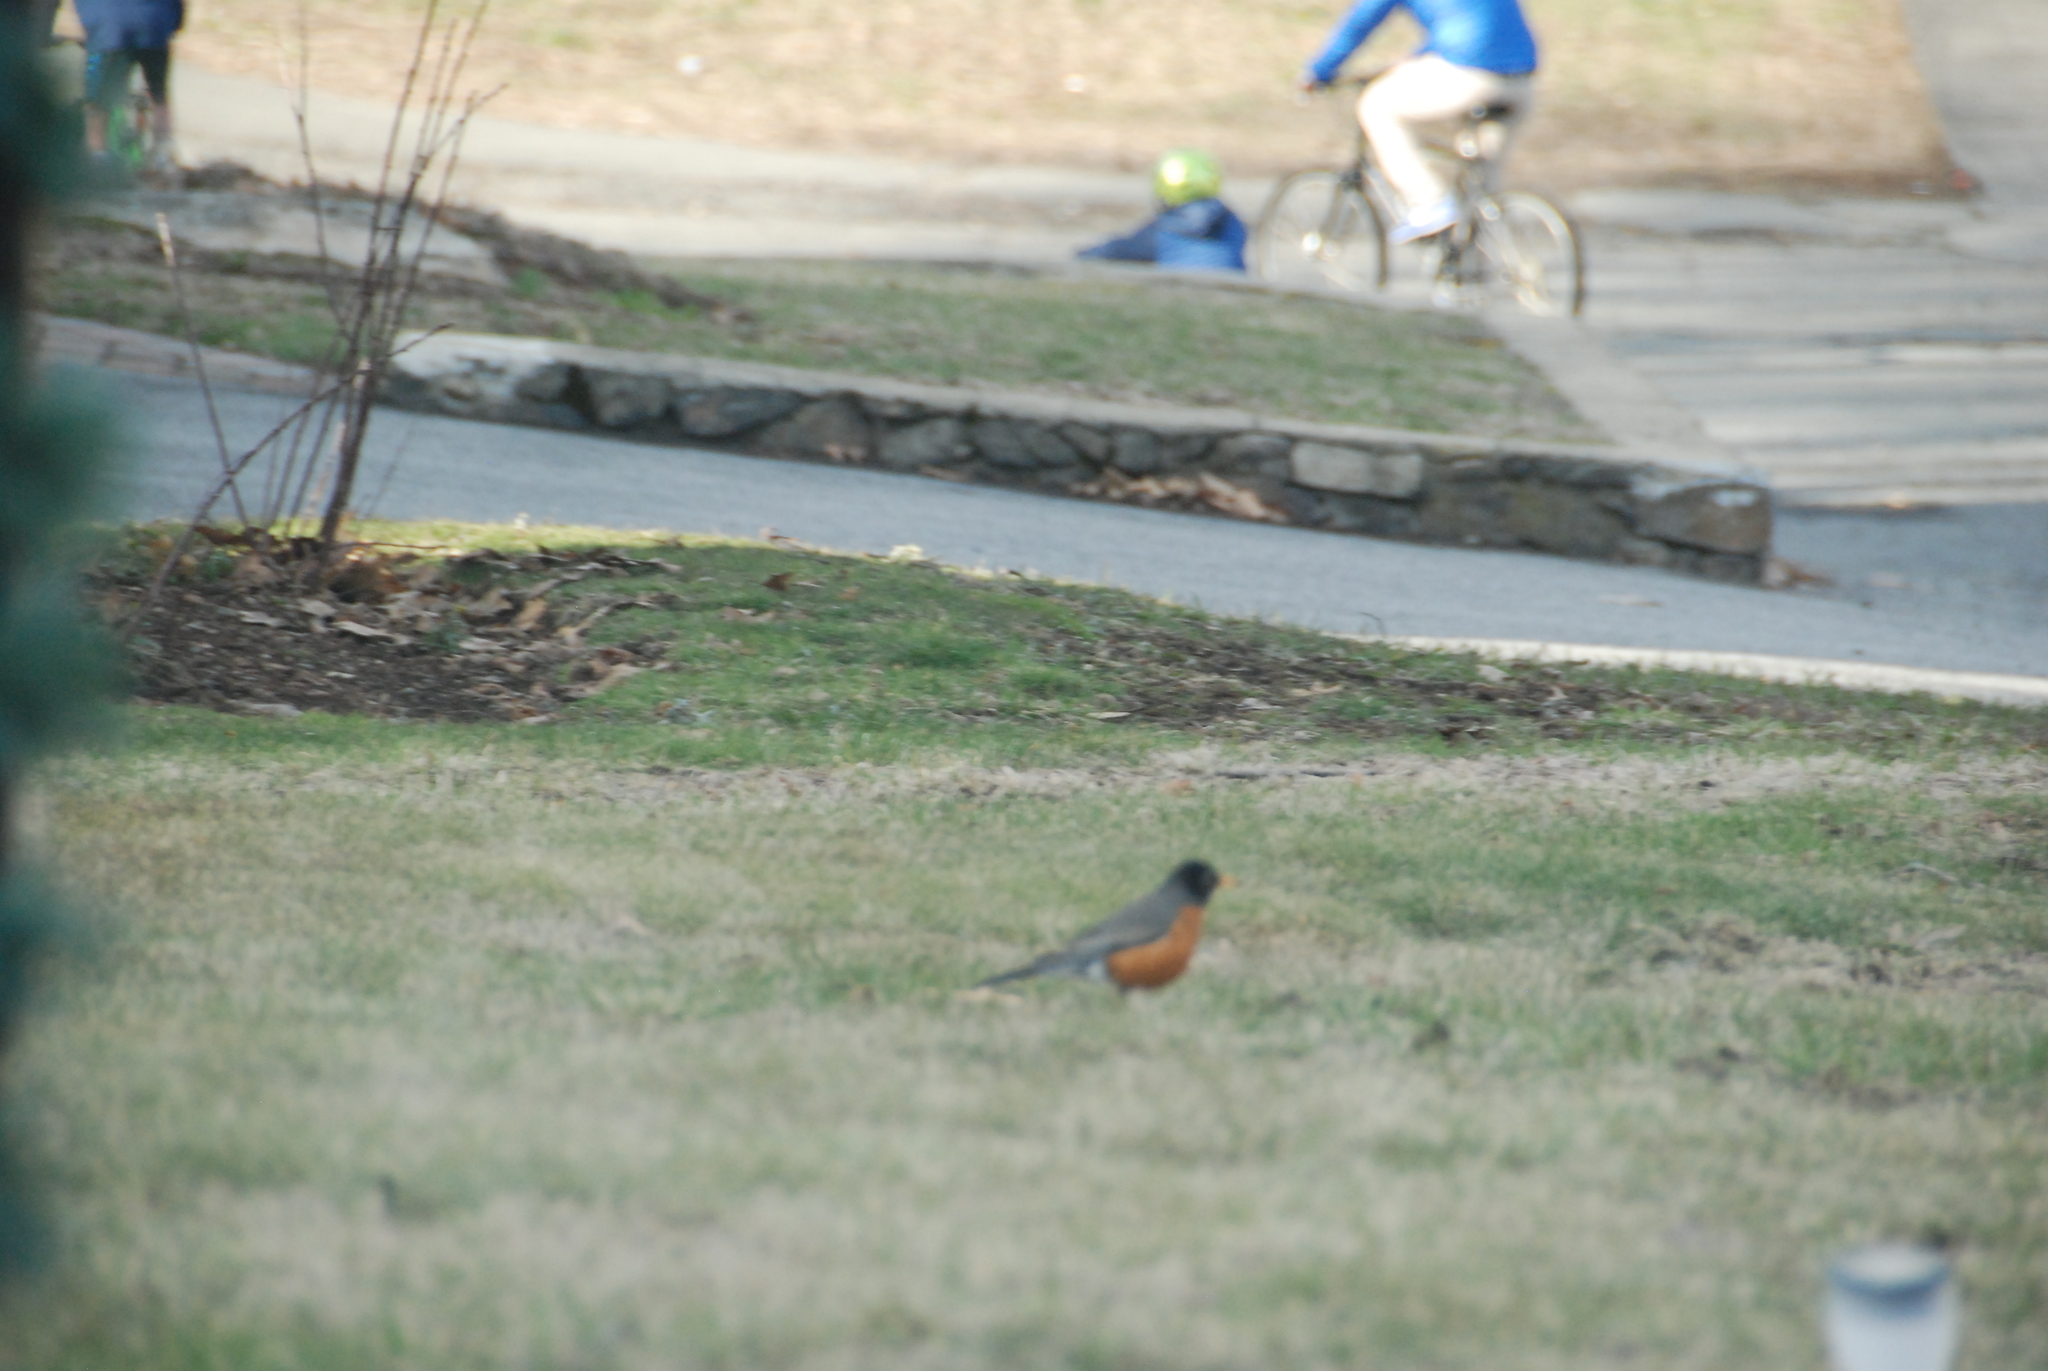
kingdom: Animalia
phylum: Chordata
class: Aves
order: Passeriformes
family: Turdidae
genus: Turdus
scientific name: Turdus migratorius
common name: American robin
